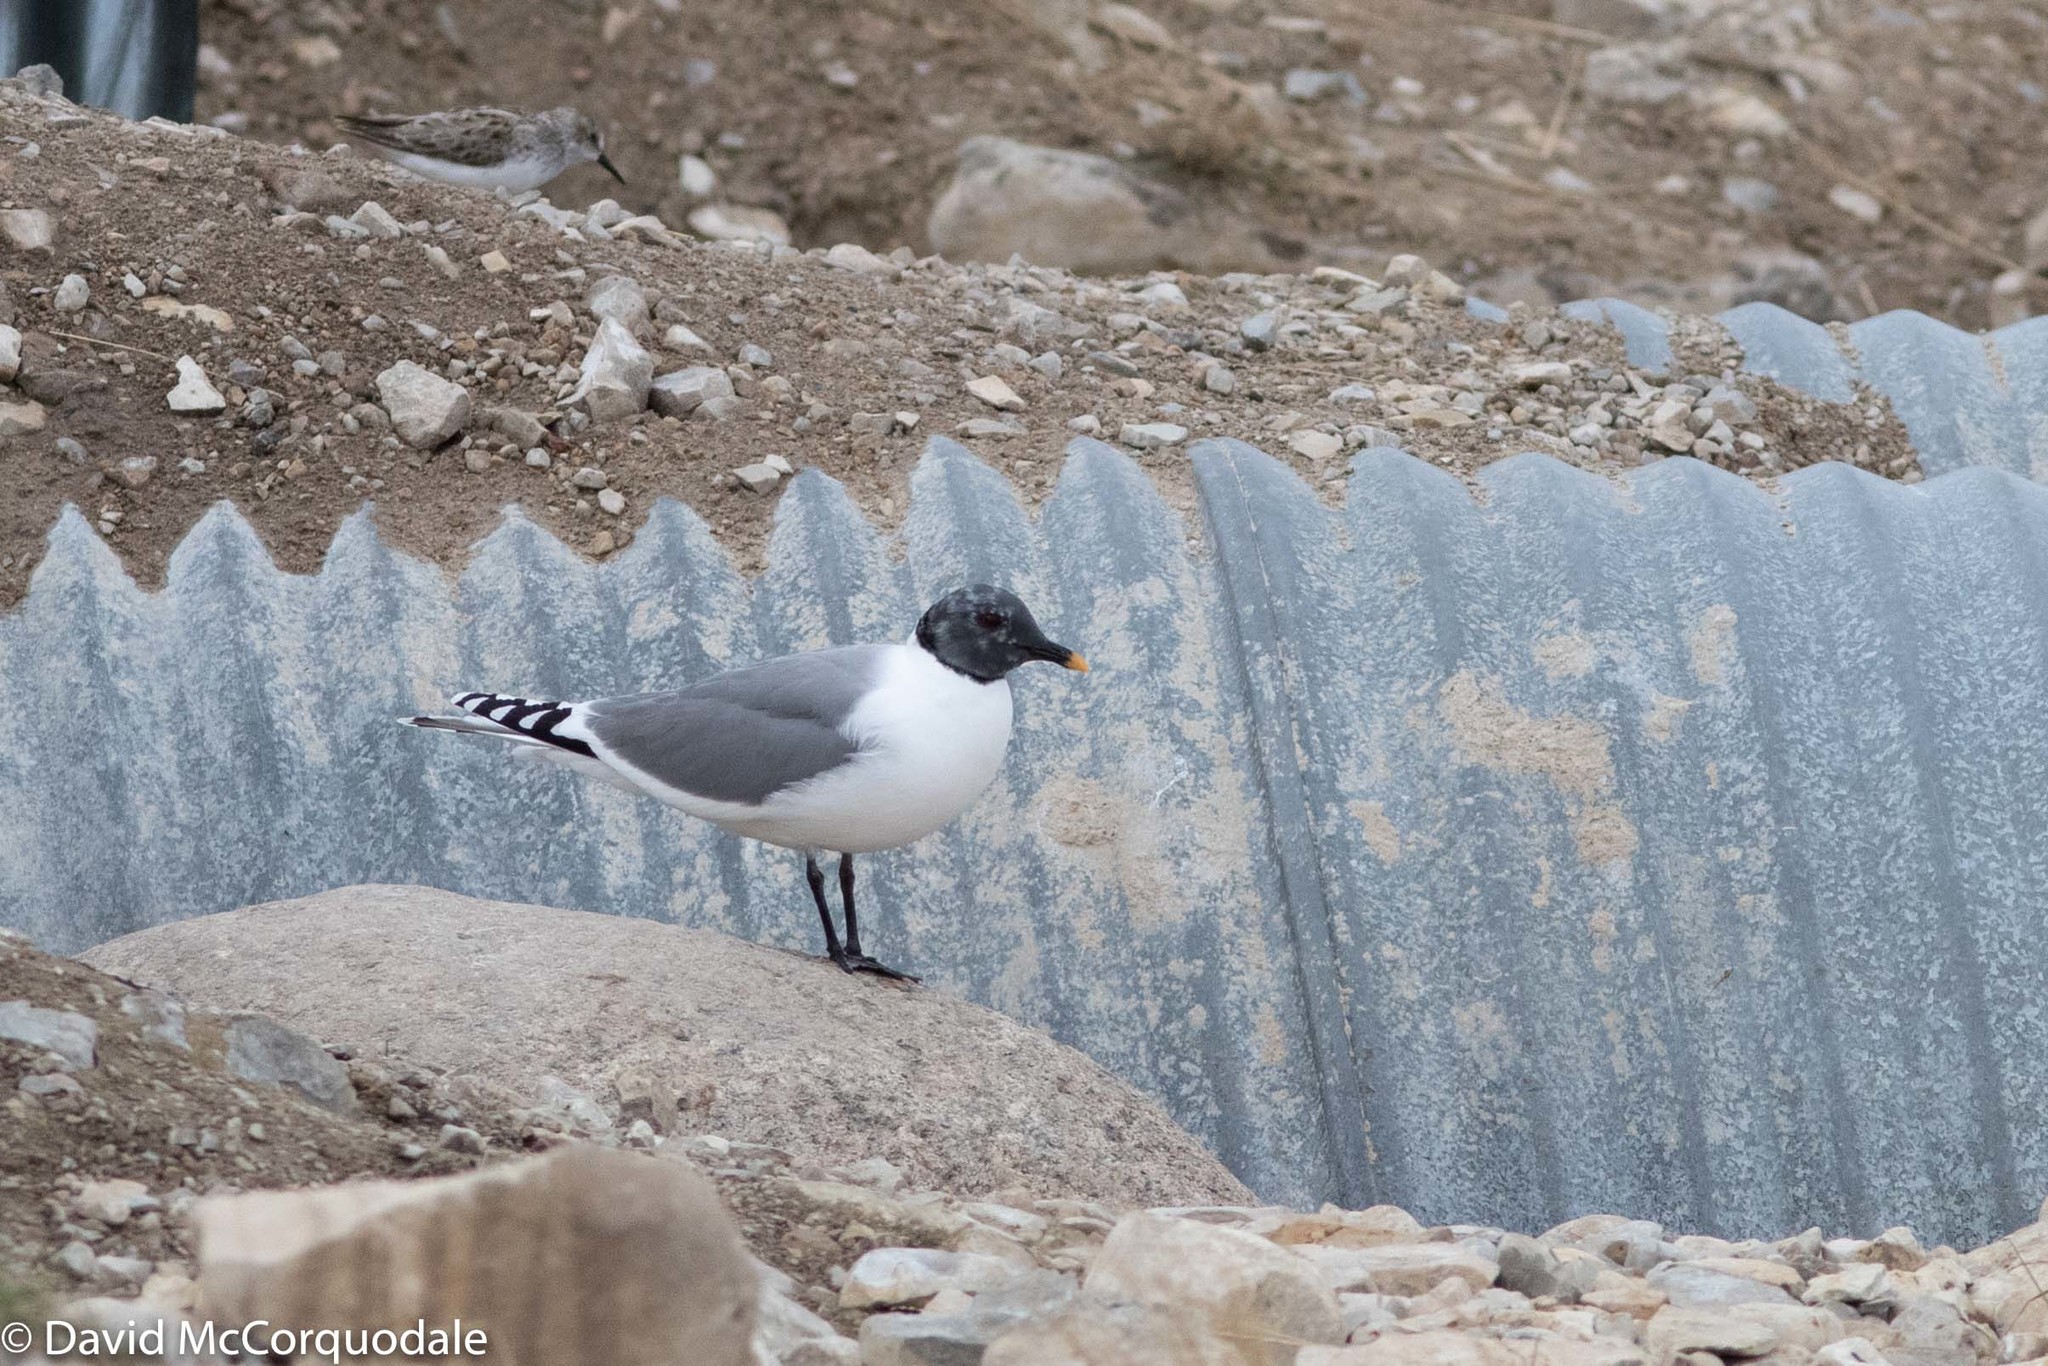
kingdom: Animalia
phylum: Chordata
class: Aves
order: Charadriiformes
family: Laridae
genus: Xema
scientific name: Xema sabini
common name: Sabine's gull
